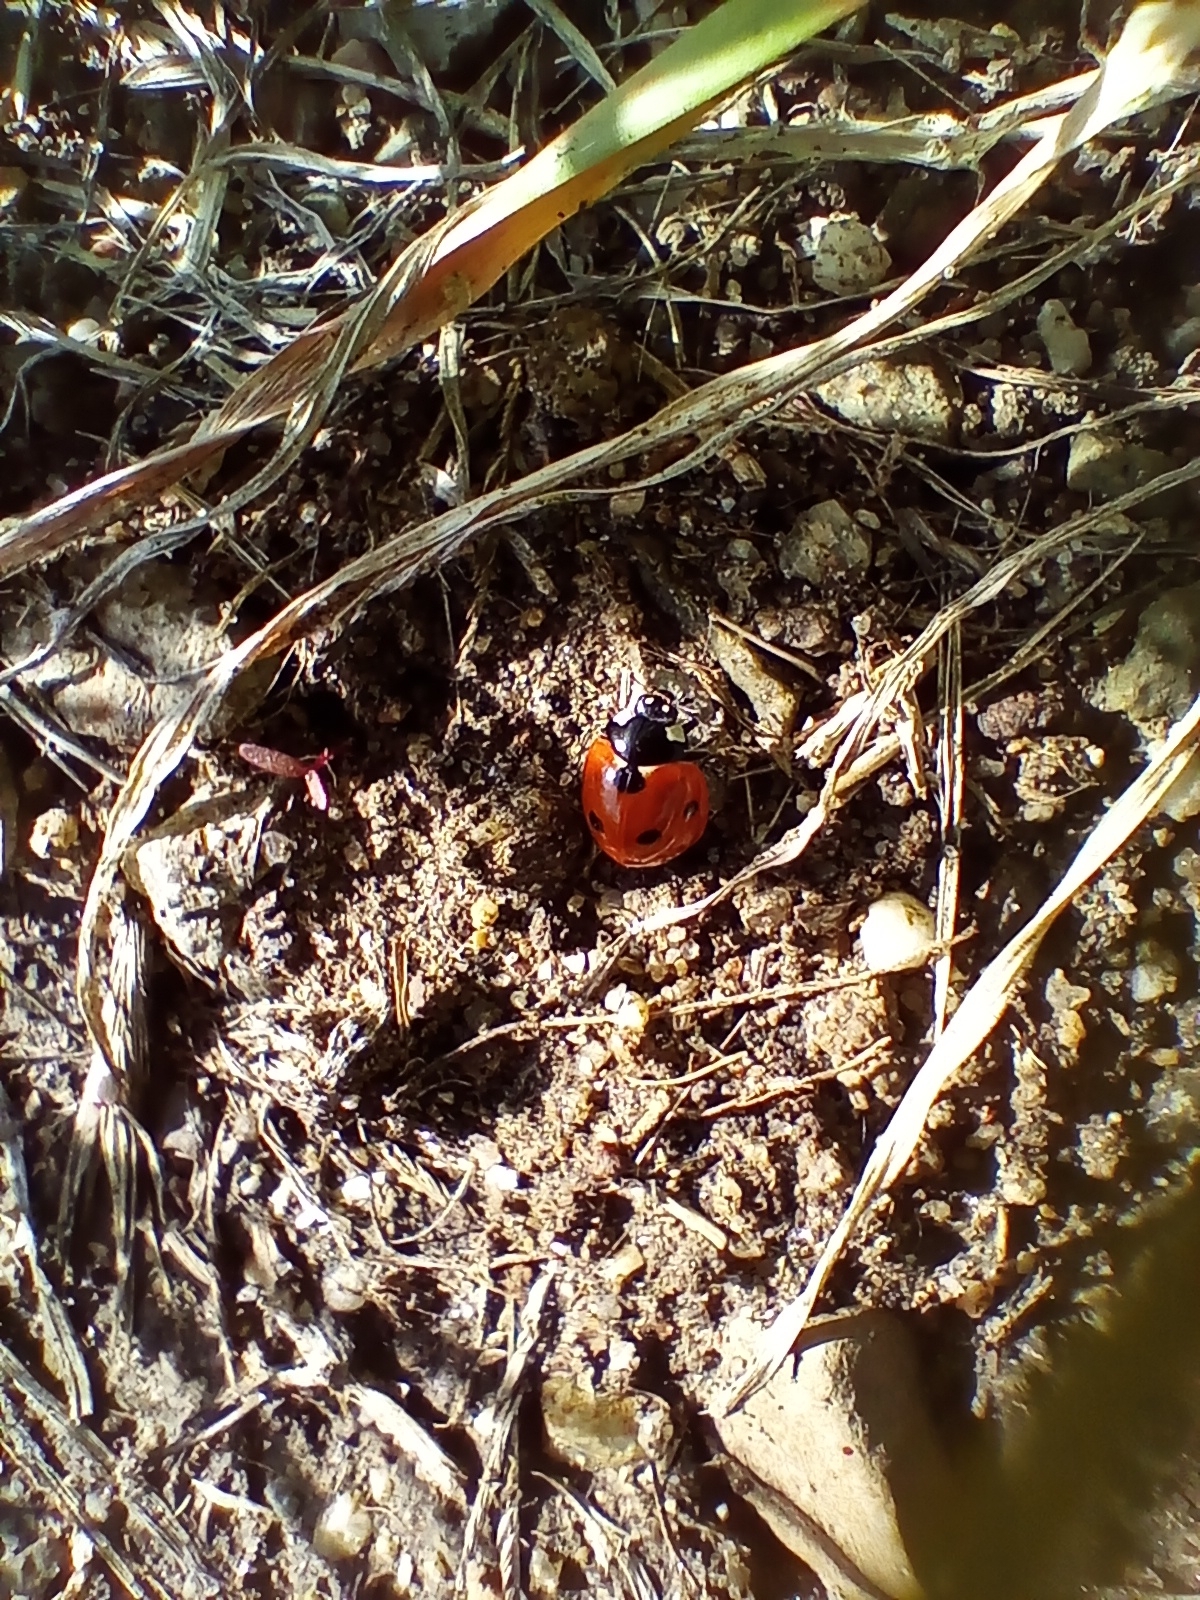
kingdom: Animalia
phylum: Arthropoda
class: Insecta
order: Coleoptera
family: Coccinellidae
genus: Coccinella
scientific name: Coccinella septempunctata
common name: Sevenspotted lady beetle
